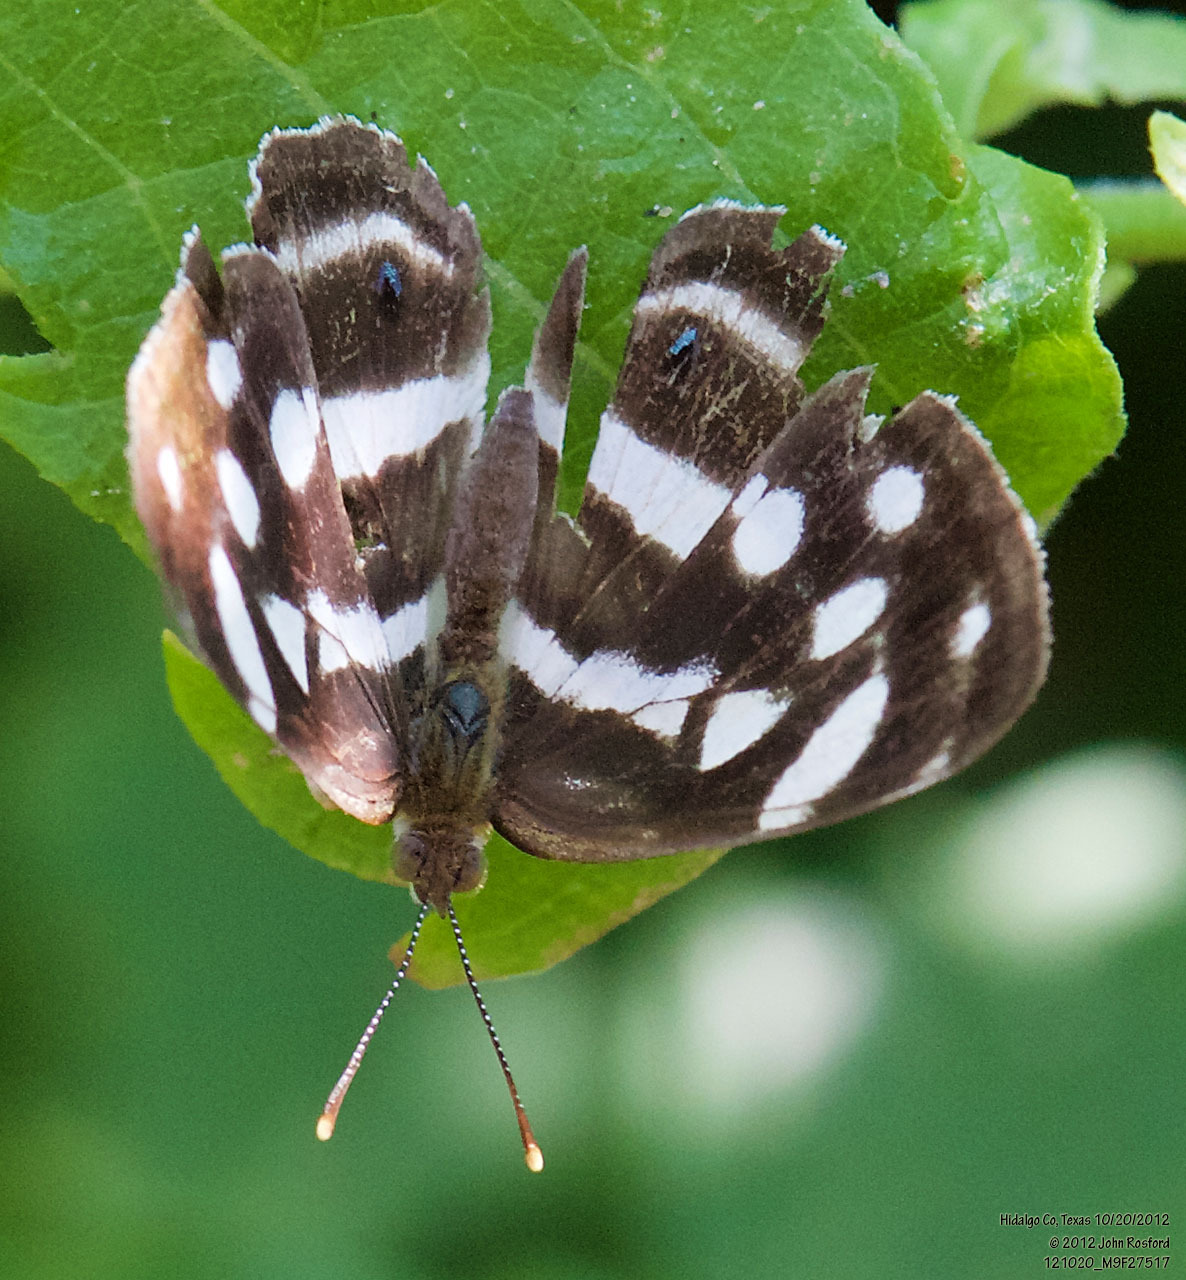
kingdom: Animalia
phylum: Arthropoda
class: Insecta
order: Lepidoptera
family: Nymphalidae
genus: Dynamine
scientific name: Dynamine mylitta
